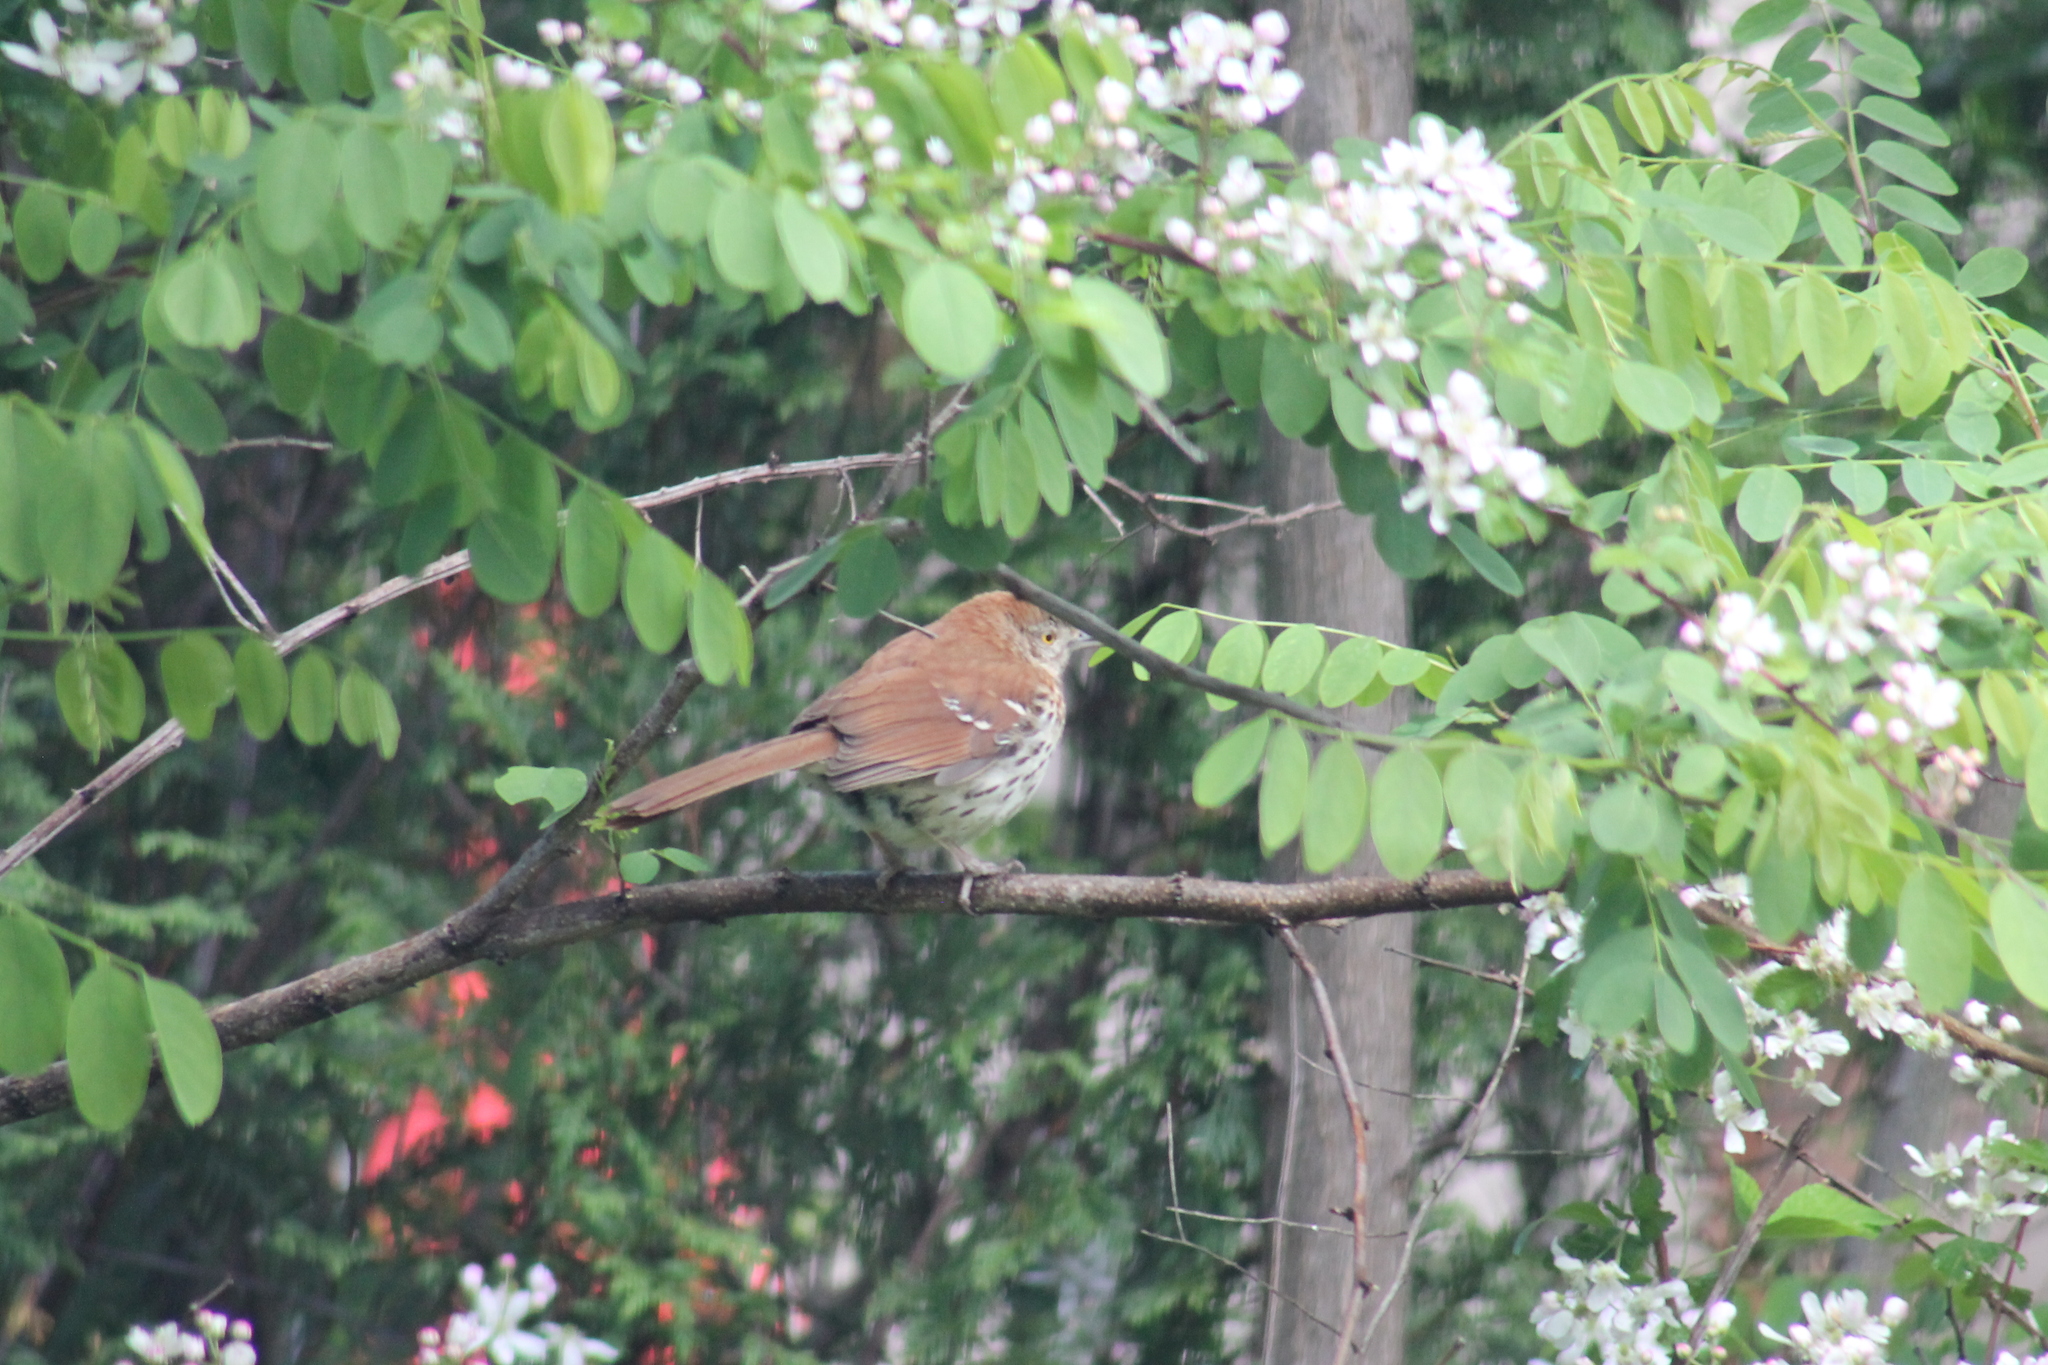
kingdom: Animalia
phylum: Chordata
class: Aves
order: Passeriformes
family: Mimidae
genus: Toxostoma
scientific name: Toxostoma rufum
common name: Brown thrasher
